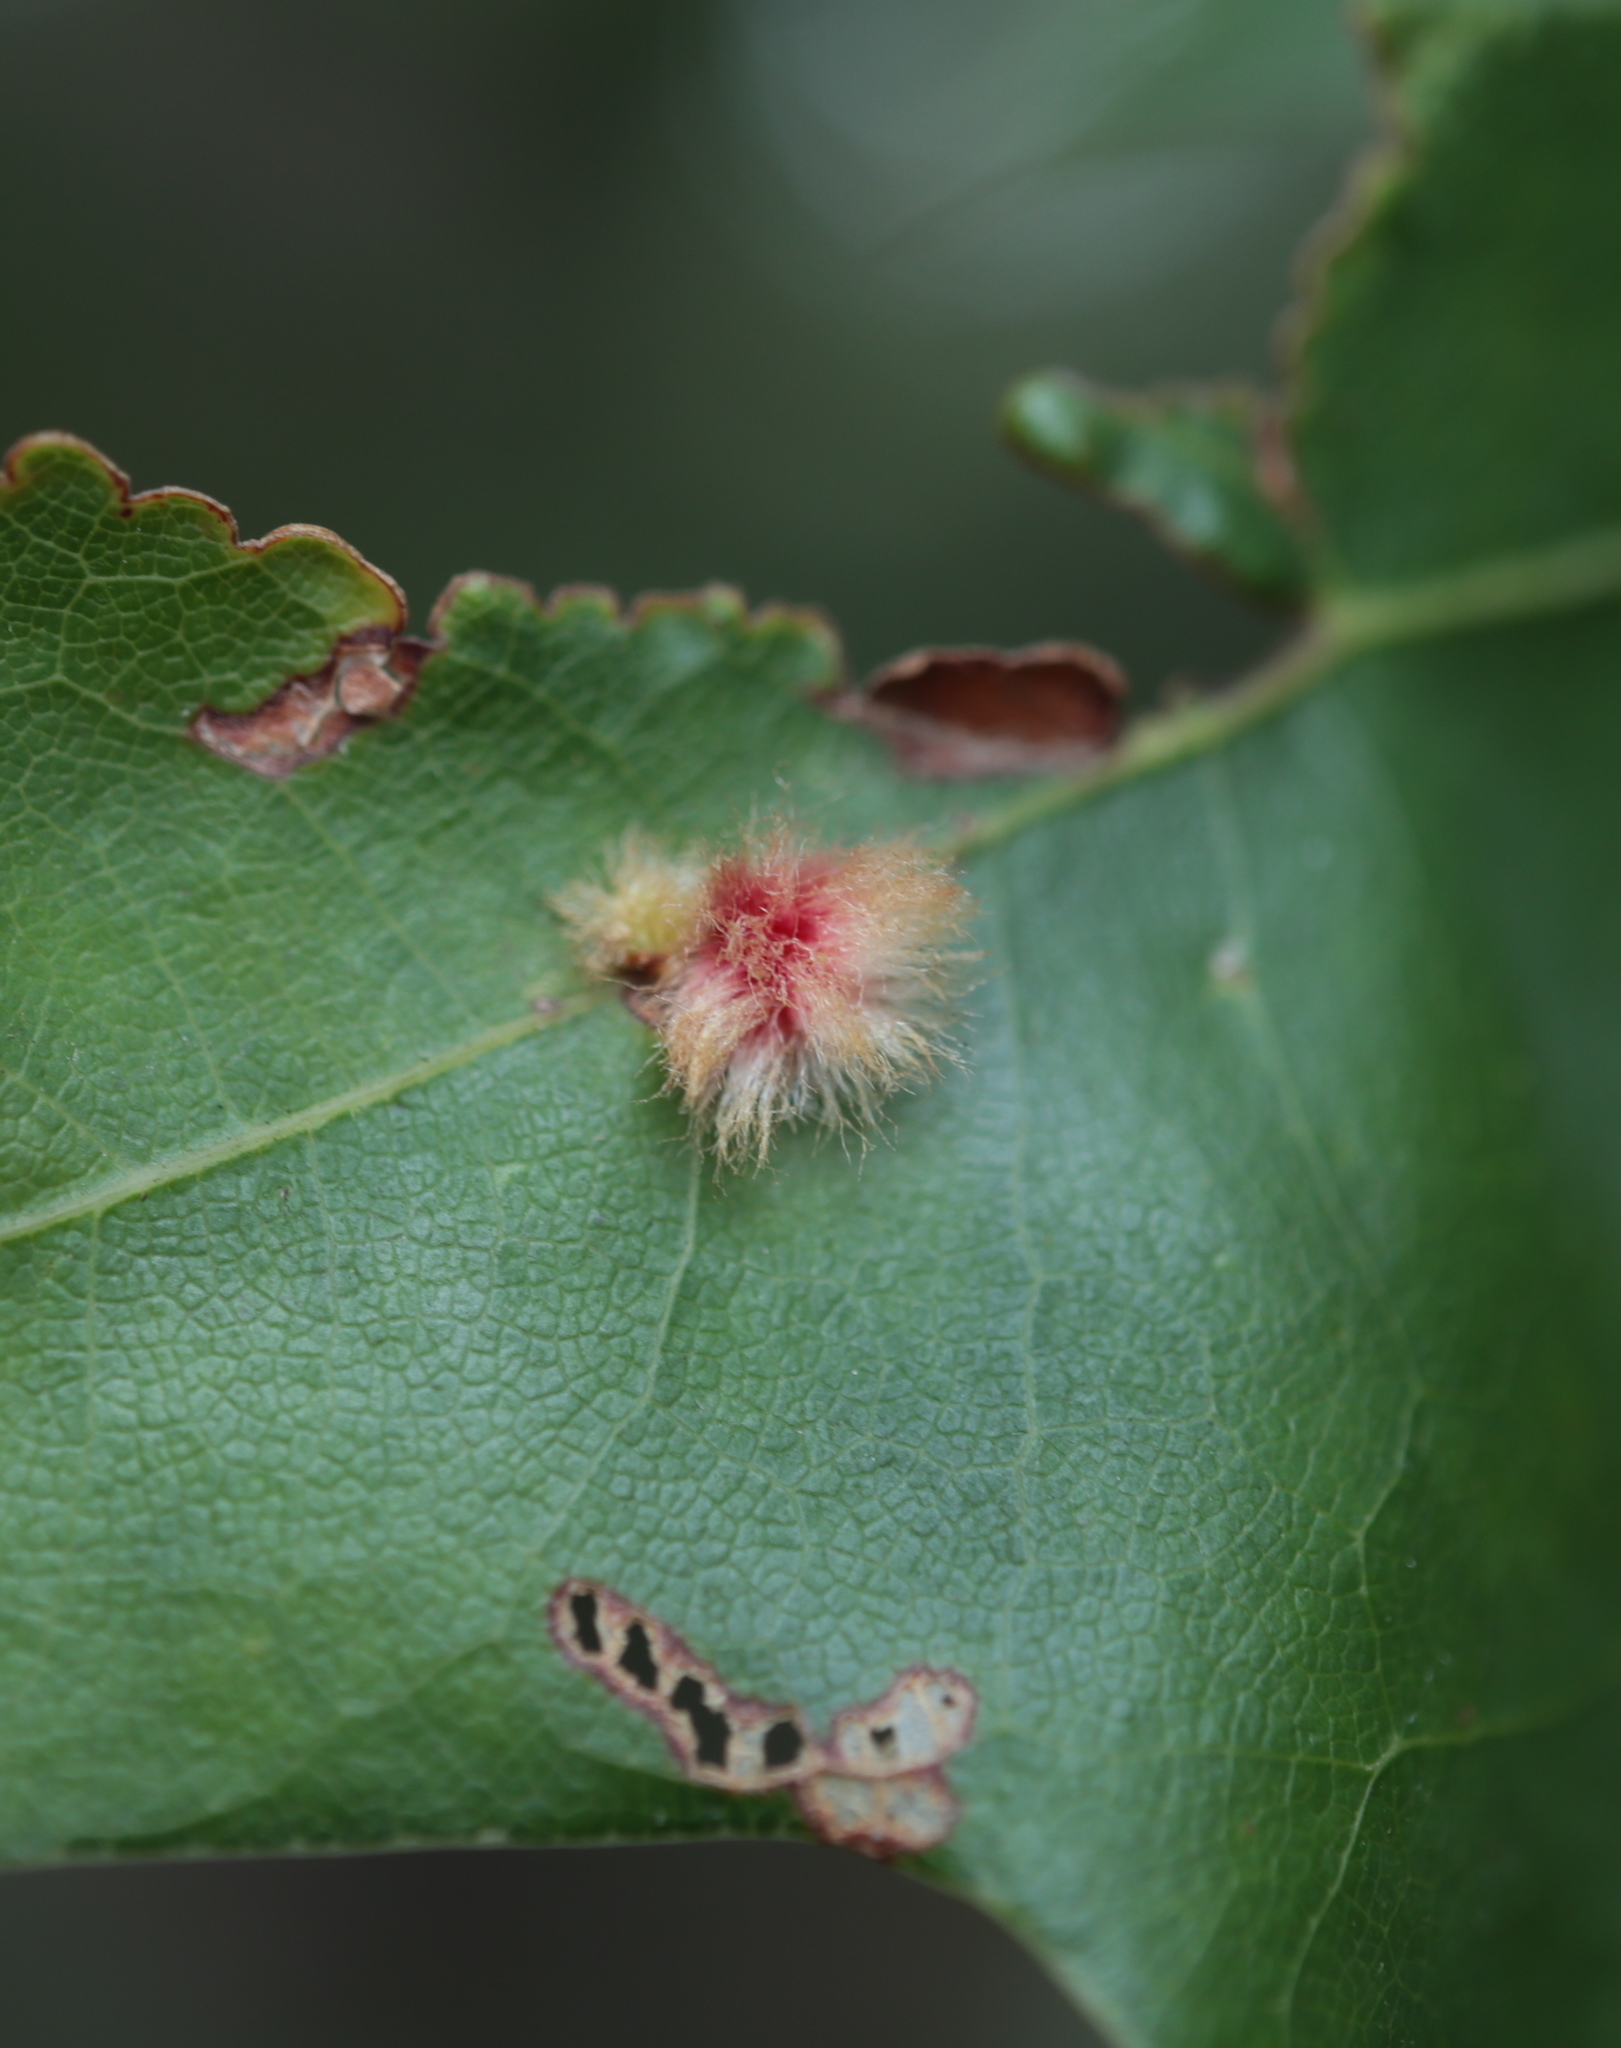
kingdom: Animalia
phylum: Arthropoda
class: Insecta
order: Hymenoptera
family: Cynipidae
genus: Callirhytis
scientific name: Callirhytis
